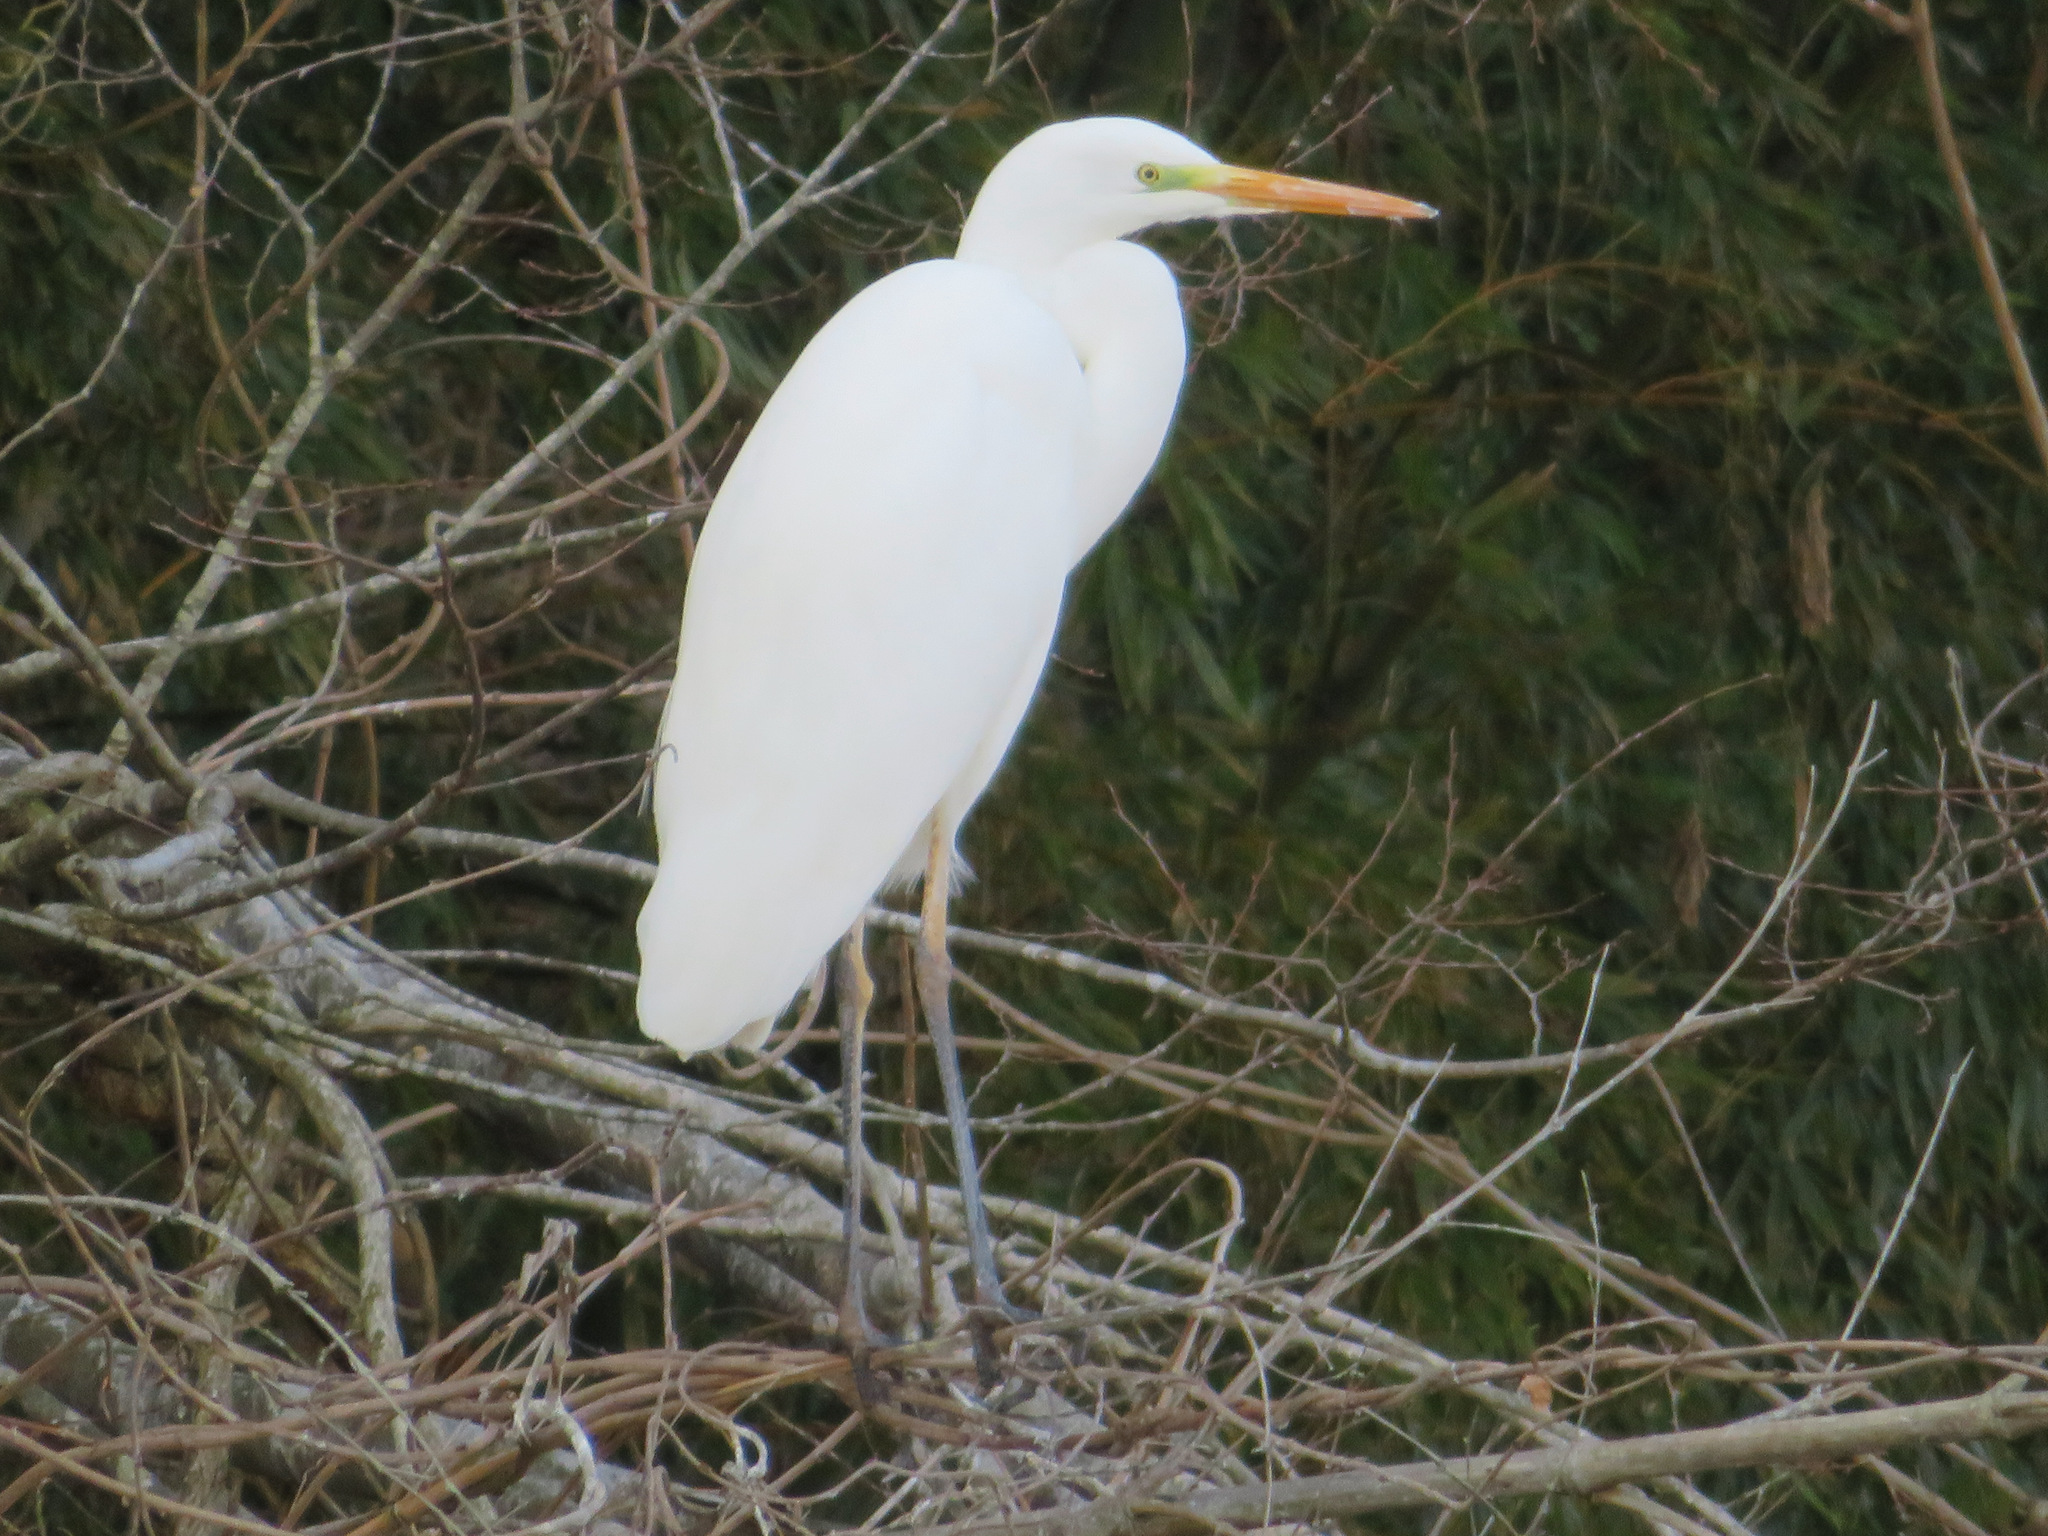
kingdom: Animalia
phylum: Chordata
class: Aves
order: Pelecaniformes
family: Ardeidae
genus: Ardea
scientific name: Ardea alba
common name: Great egret
